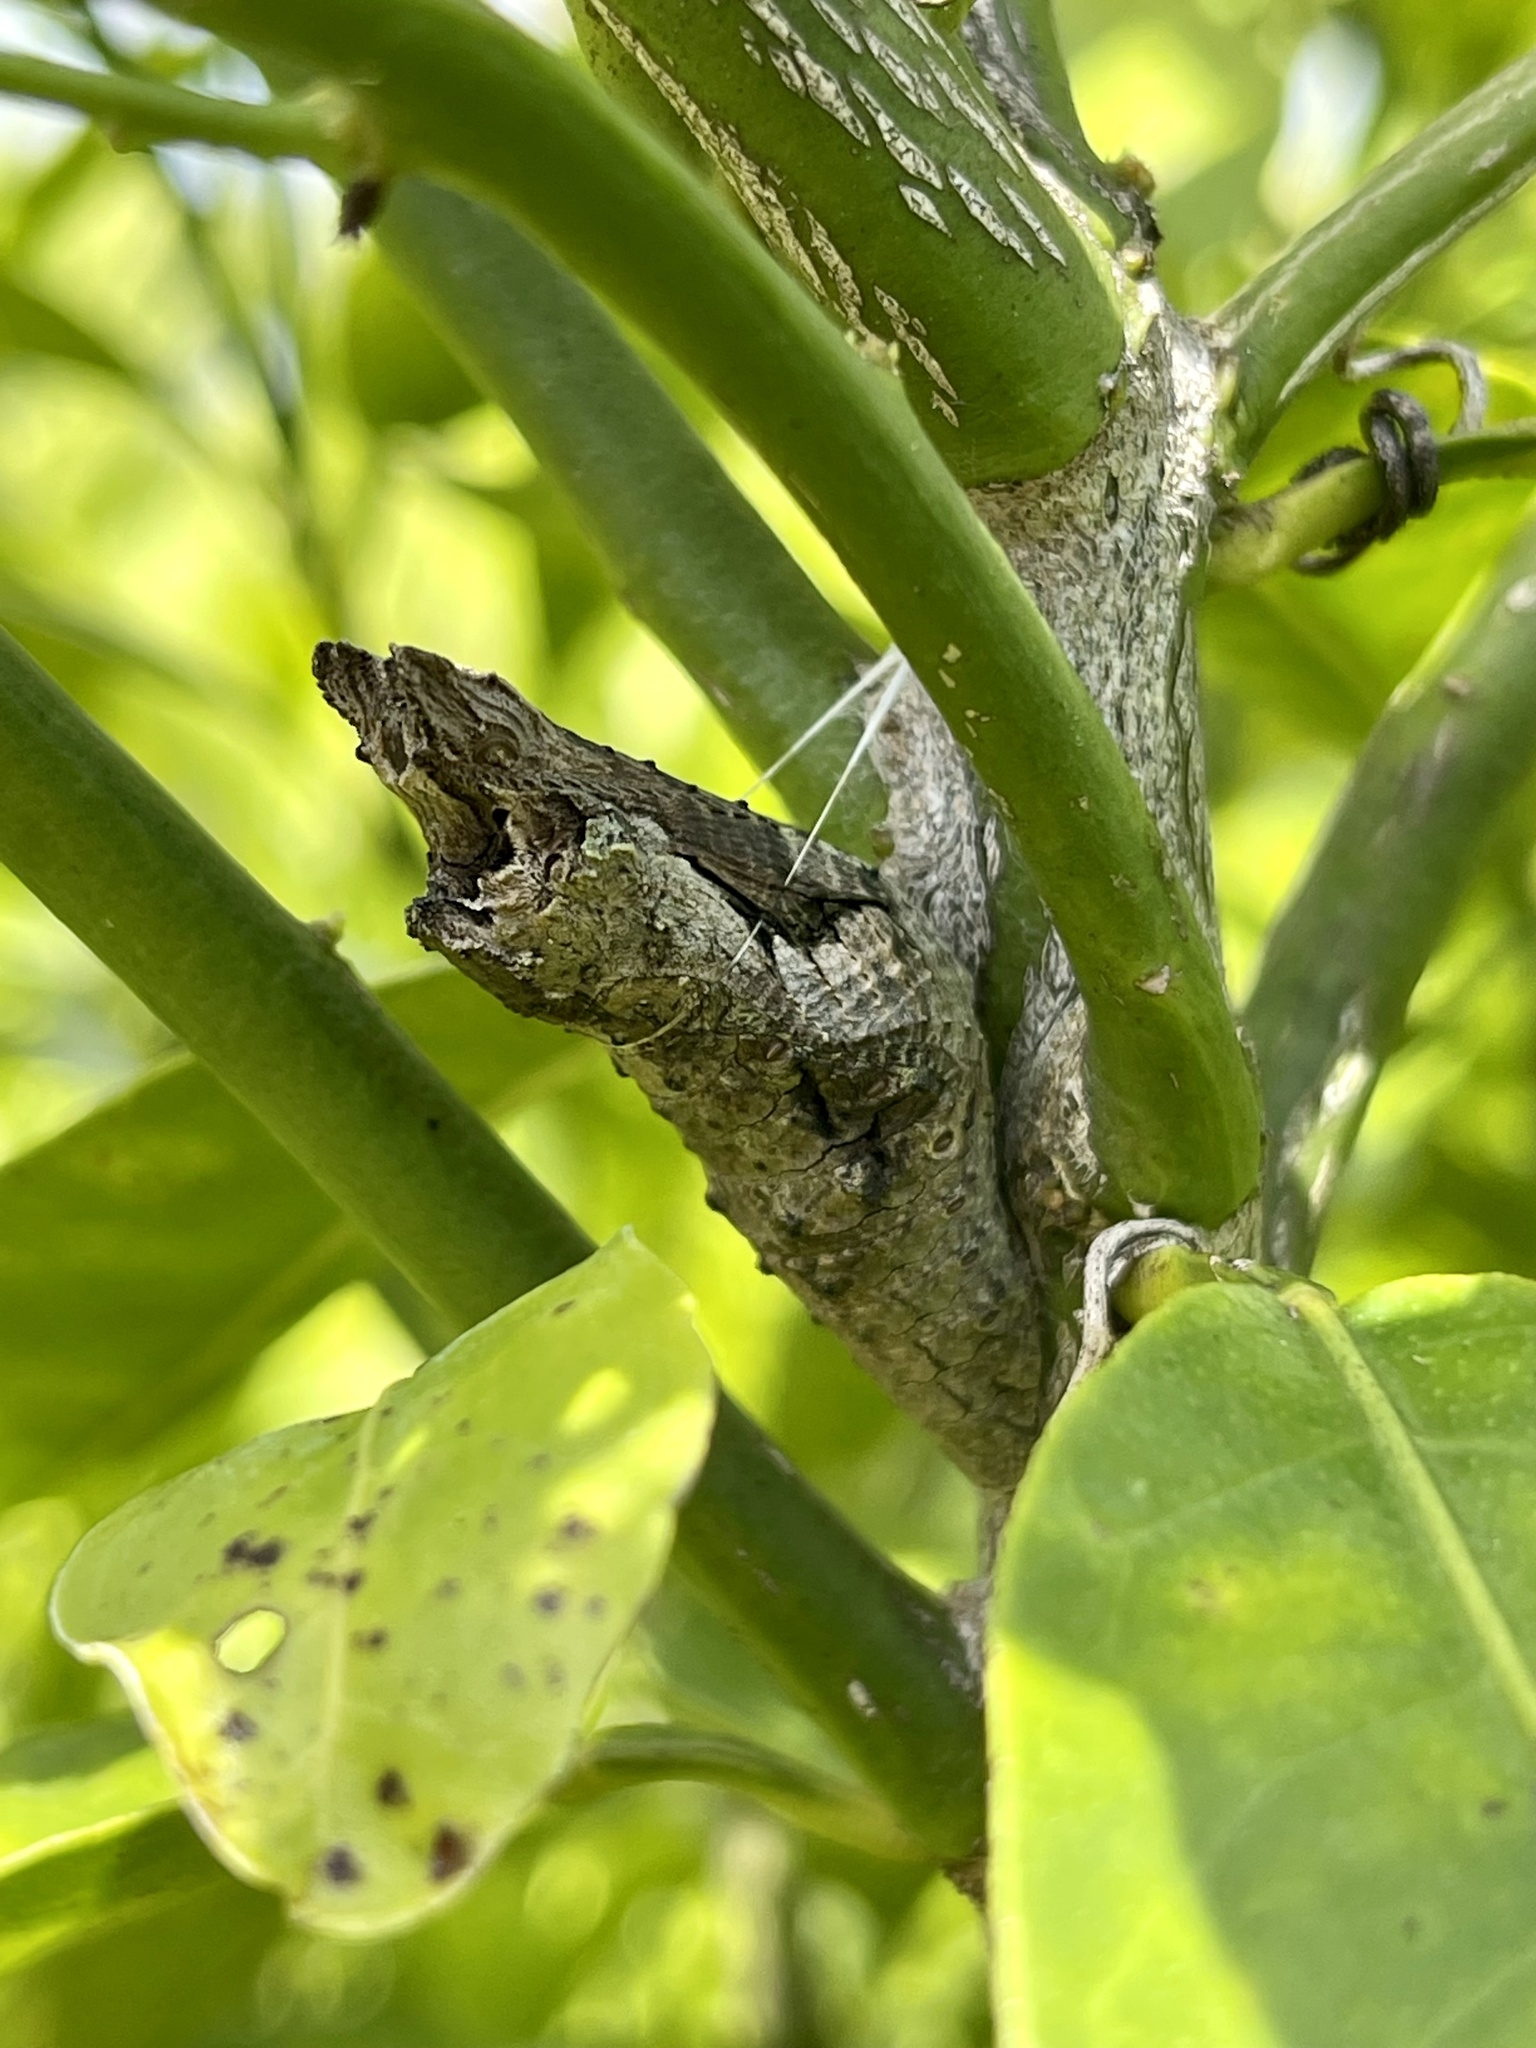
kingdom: Animalia
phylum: Arthropoda
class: Insecta
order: Lepidoptera
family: Papilionidae
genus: Papilio
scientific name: Papilio cresphontes
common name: Giant swallowtail
